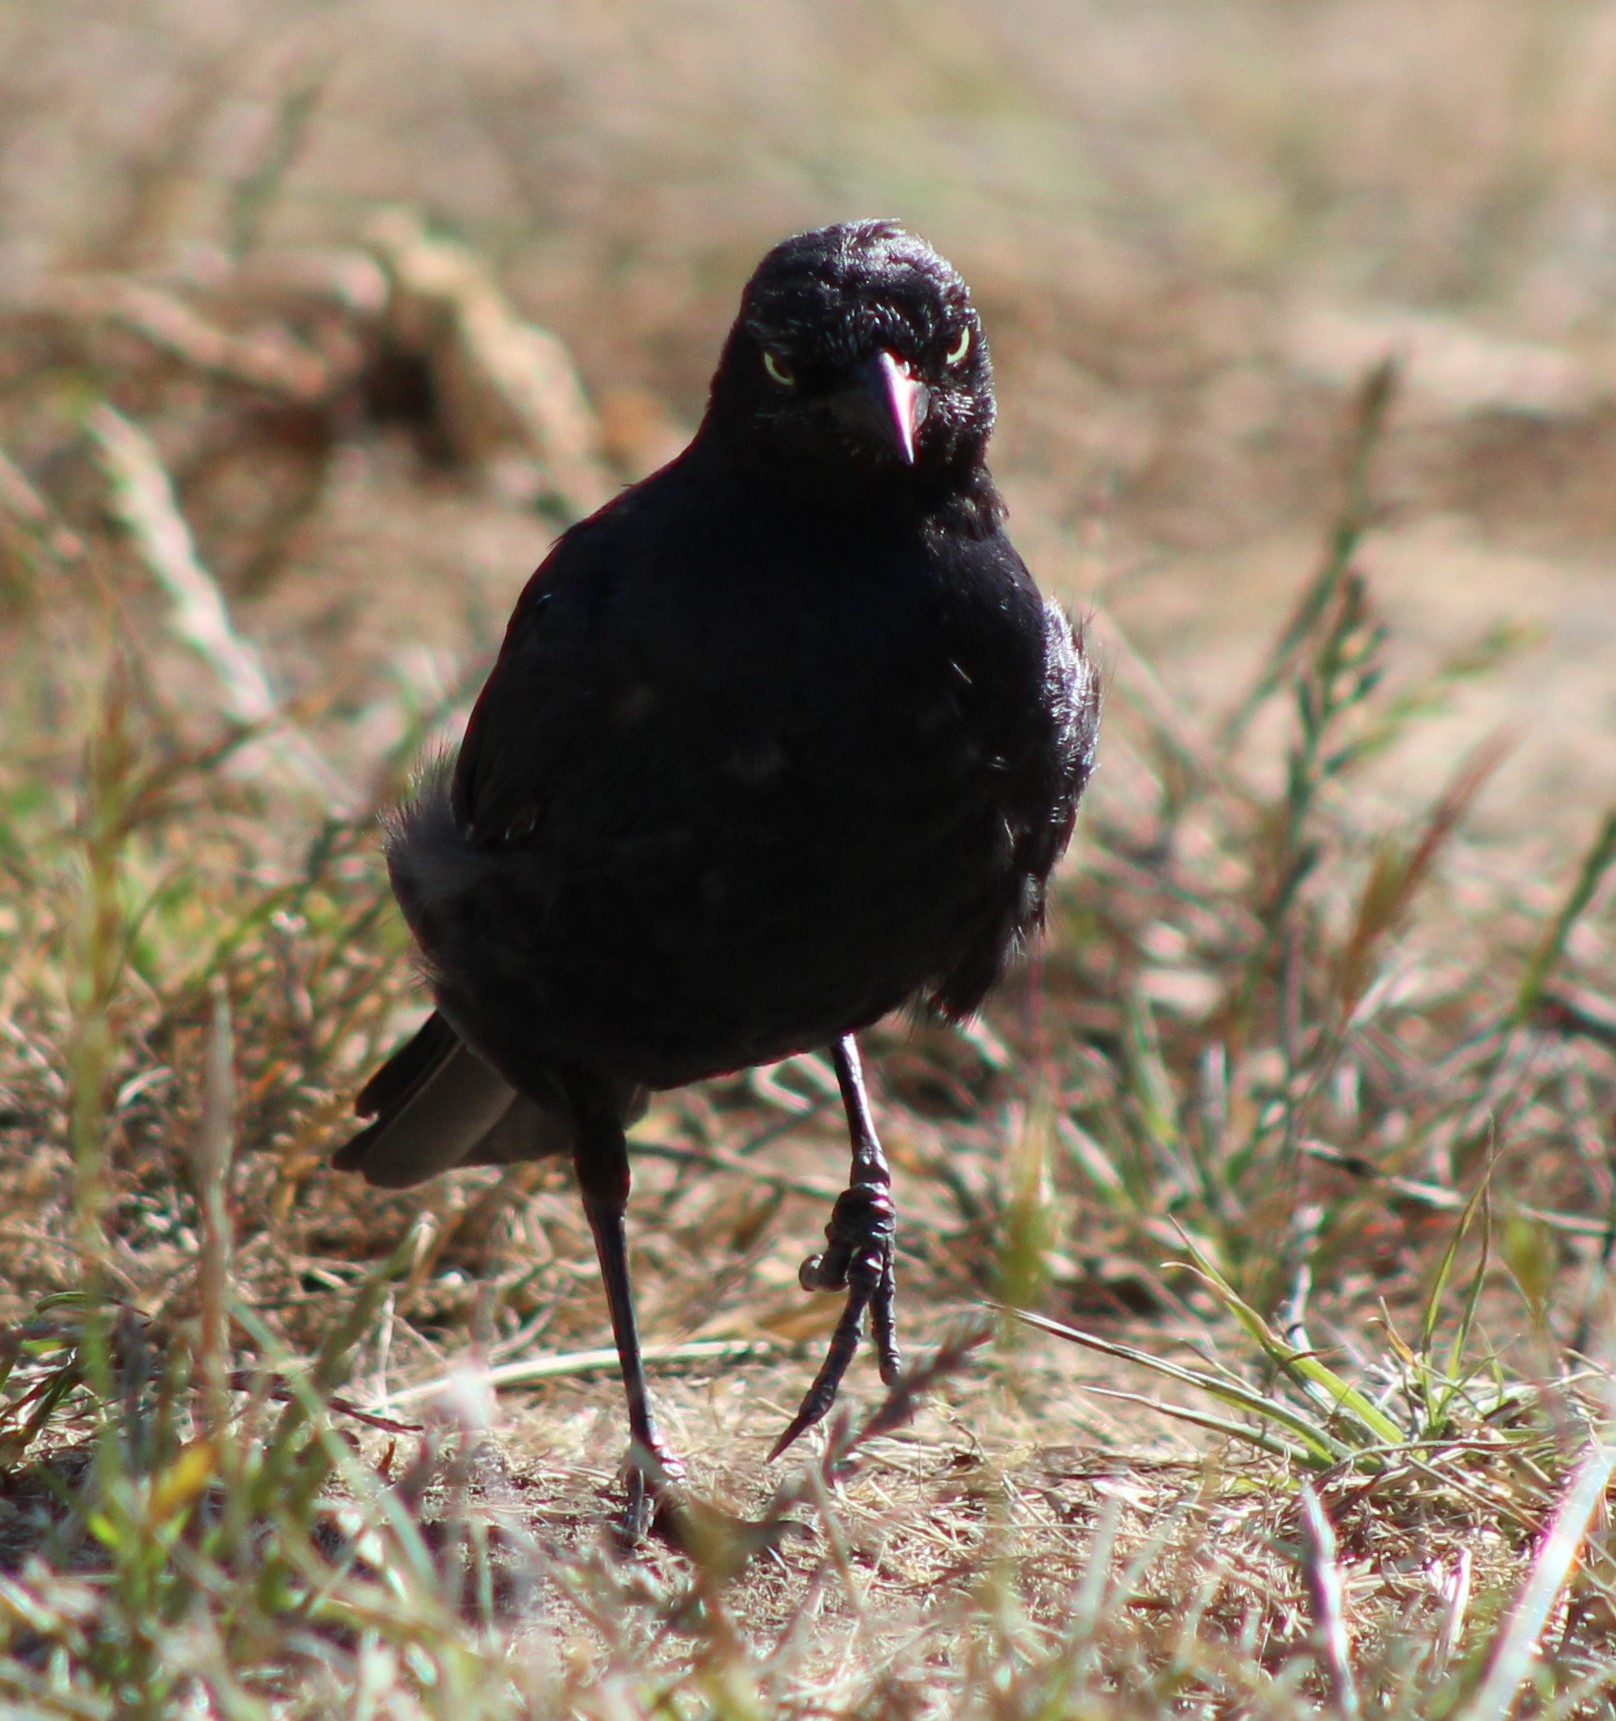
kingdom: Animalia
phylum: Chordata
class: Aves
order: Passeriformes
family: Icteridae
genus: Euphagus
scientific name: Euphagus cyanocephalus
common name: Brewer's blackbird
